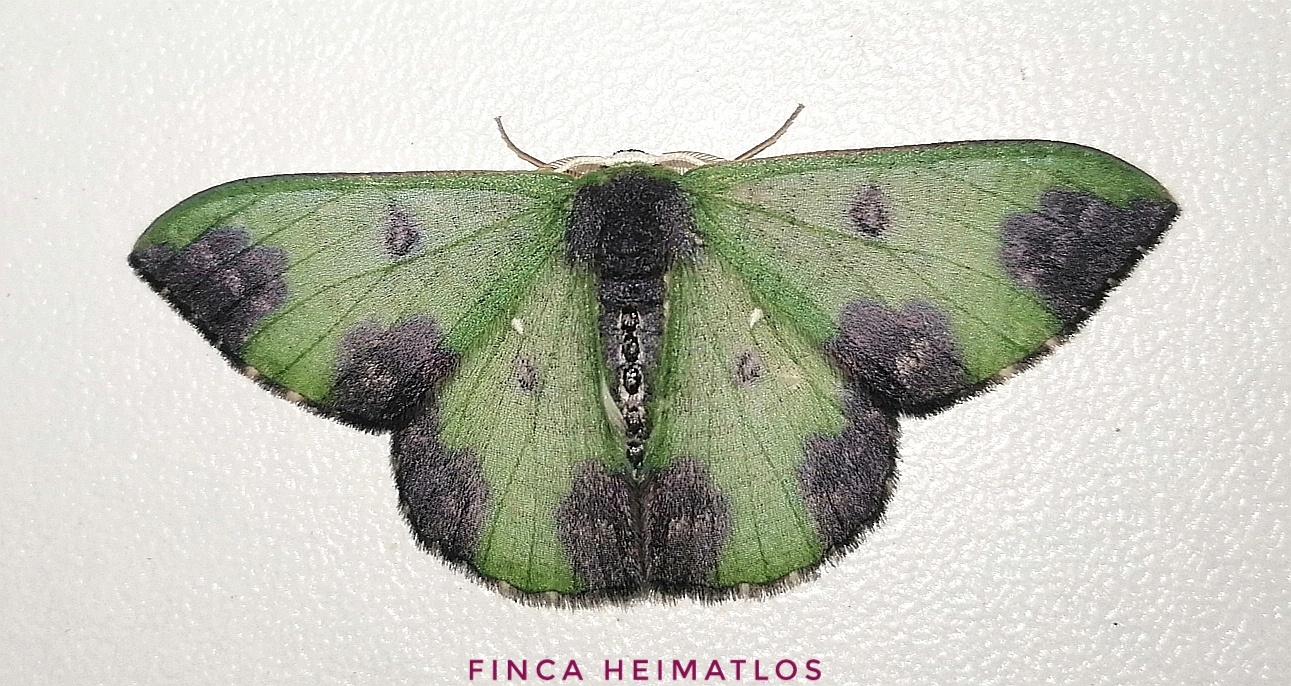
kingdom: Animalia
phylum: Arthropoda
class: Insecta
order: Lepidoptera
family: Geometridae
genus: Oospila
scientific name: Oospila atopochlora
